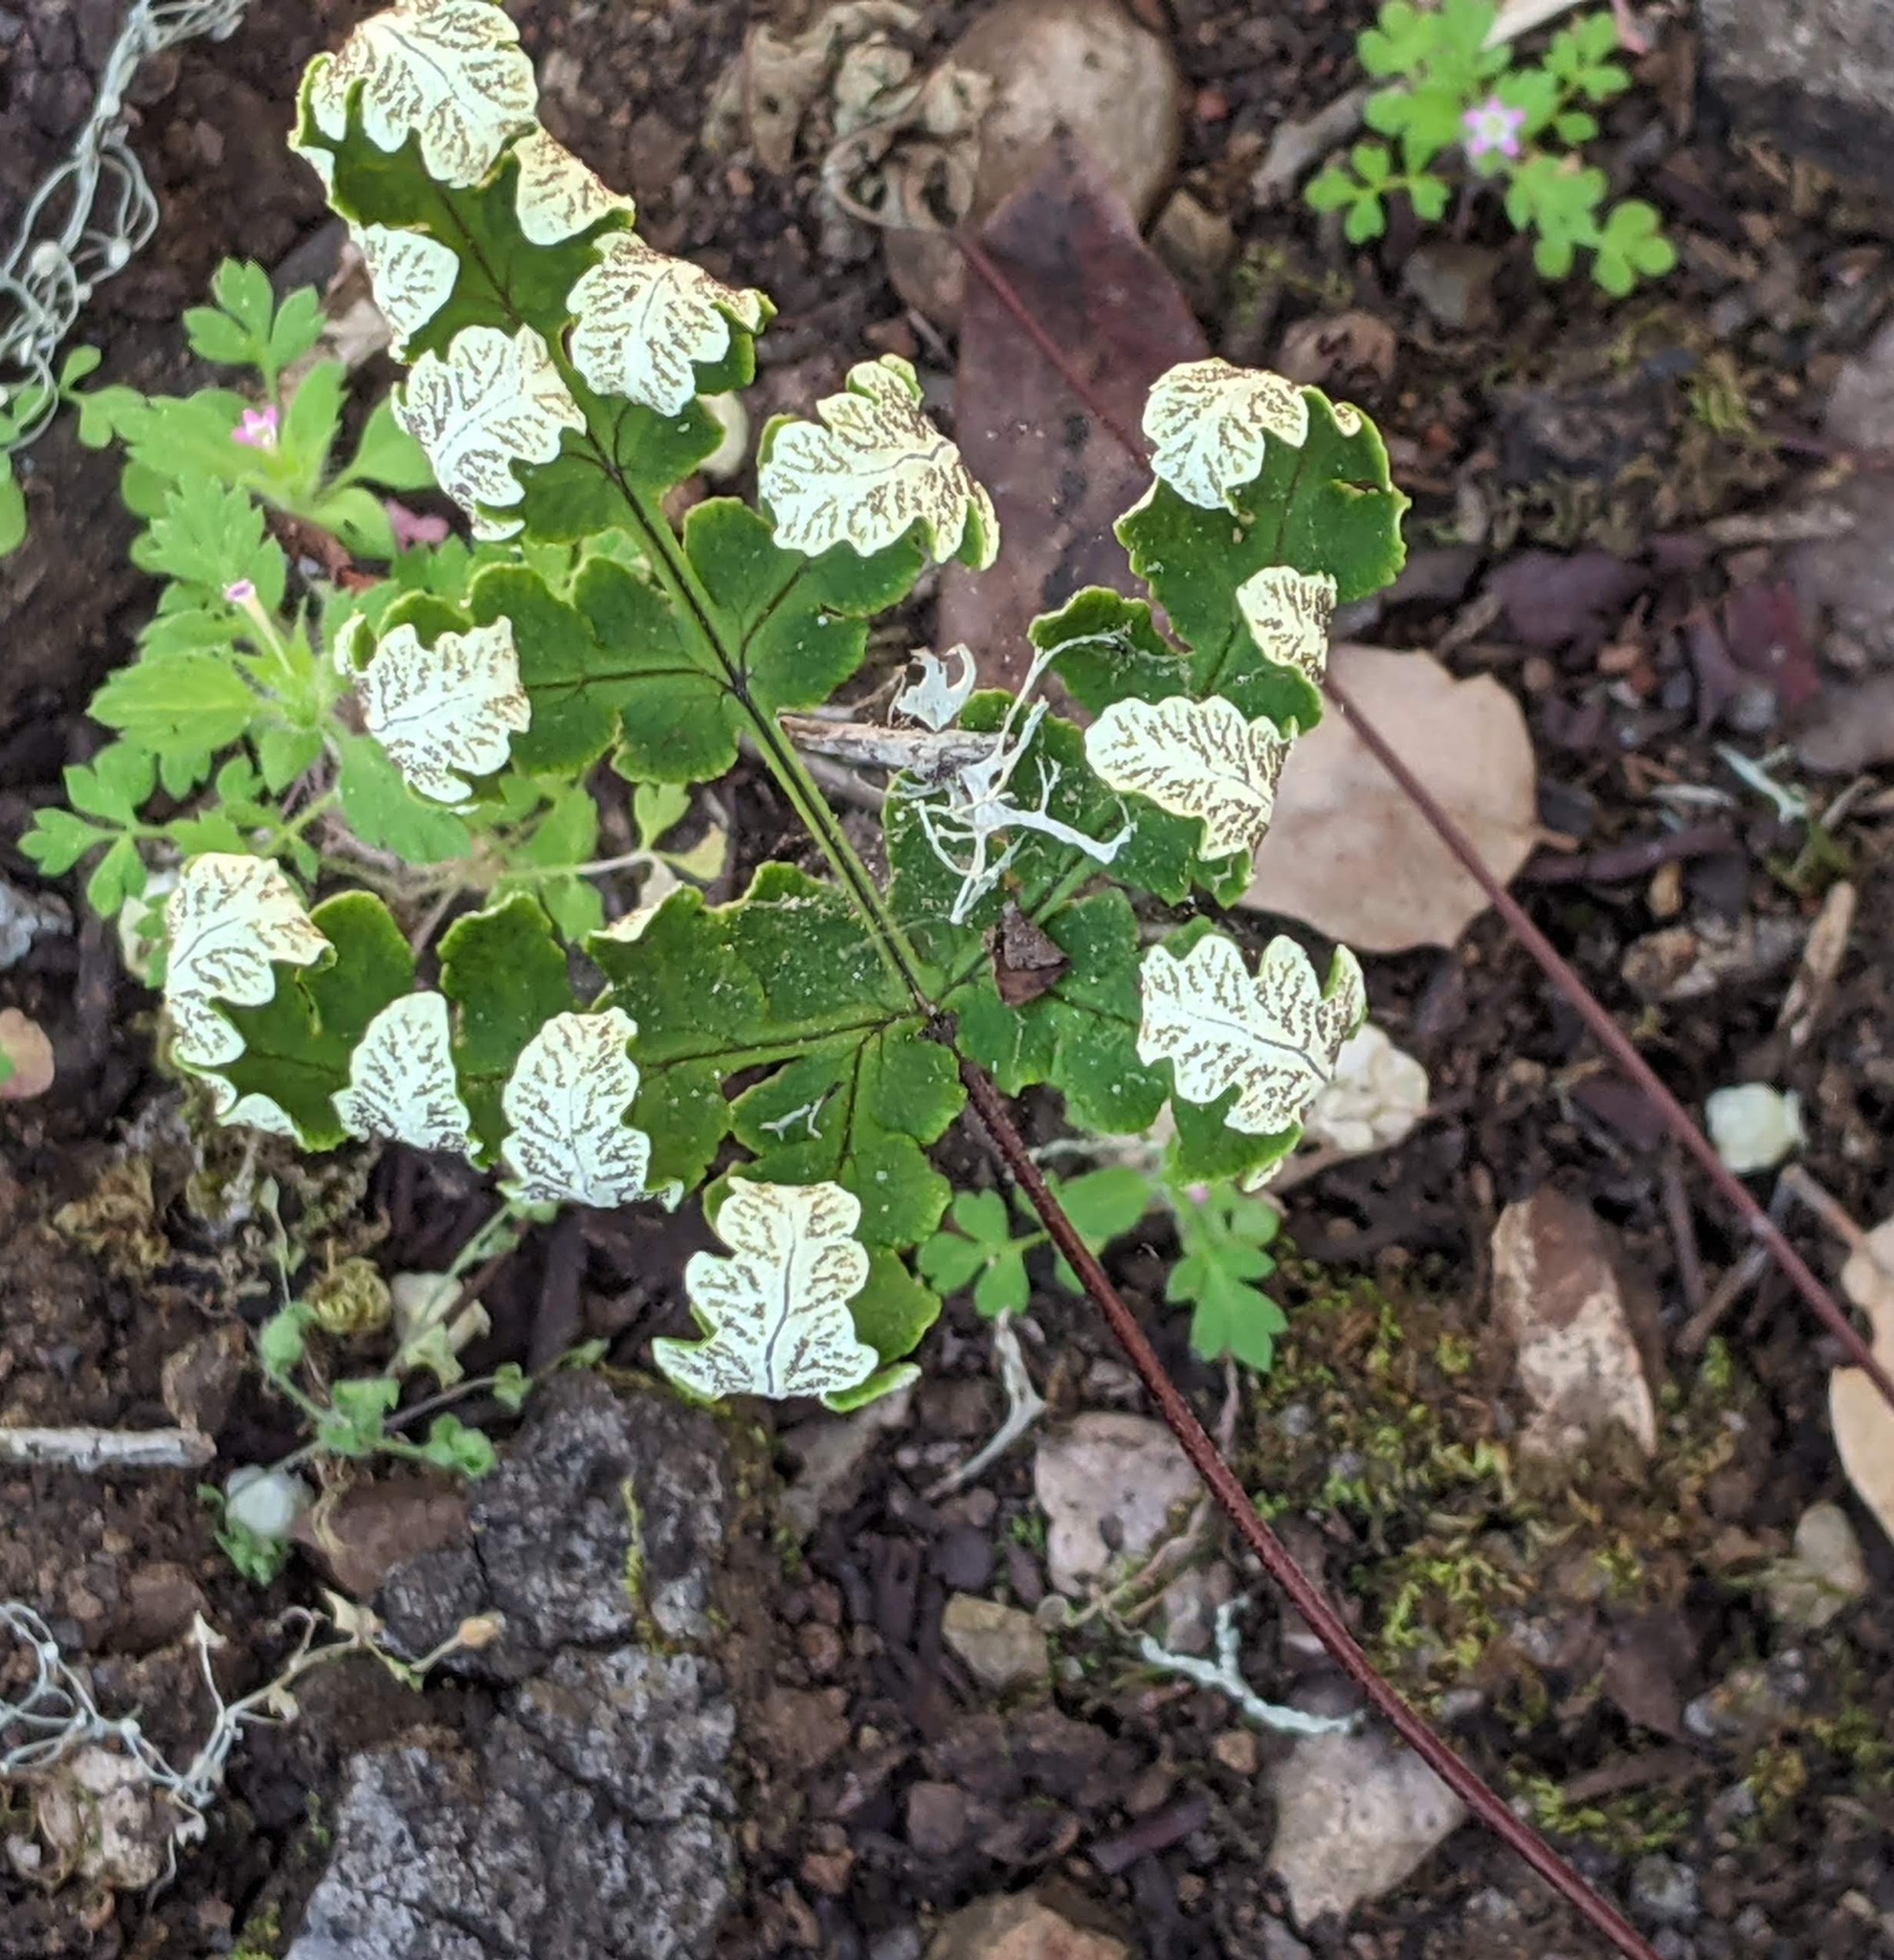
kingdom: Plantae
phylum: Tracheophyta
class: Polypodiopsida
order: Polypodiales
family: Pteridaceae
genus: Pentagramma
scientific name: Pentagramma triangularis
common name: Gold fern
